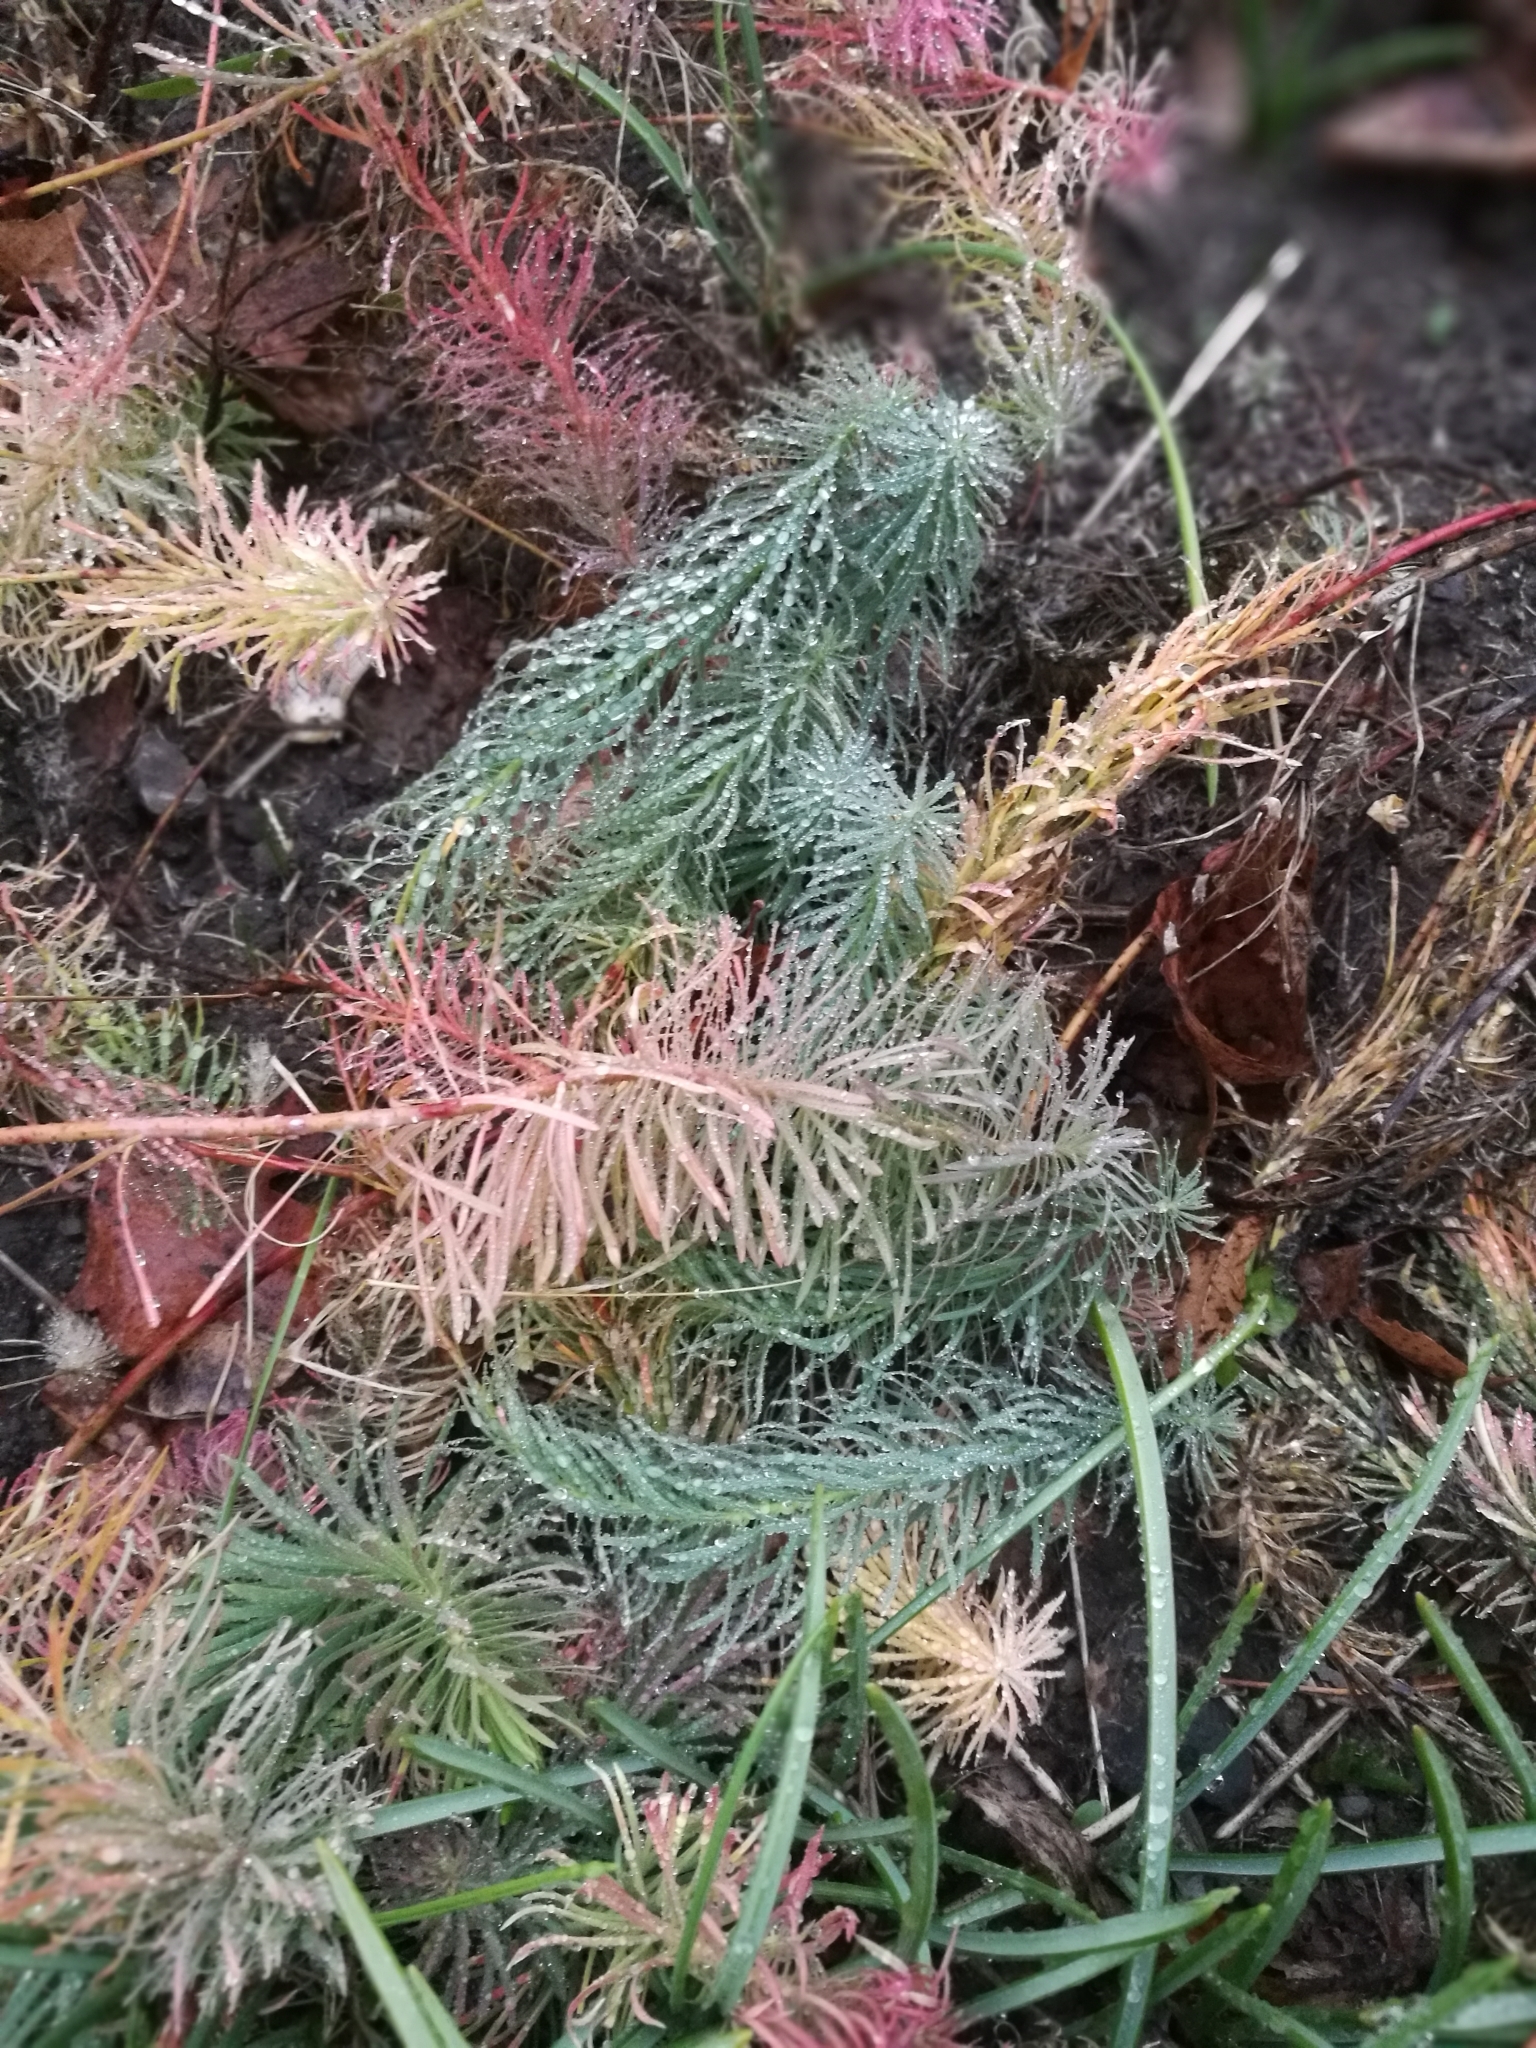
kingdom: Plantae
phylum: Tracheophyta
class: Magnoliopsida
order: Malpighiales
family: Euphorbiaceae
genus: Euphorbia
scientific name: Euphorbia cyparissias
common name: Cypress spurge
